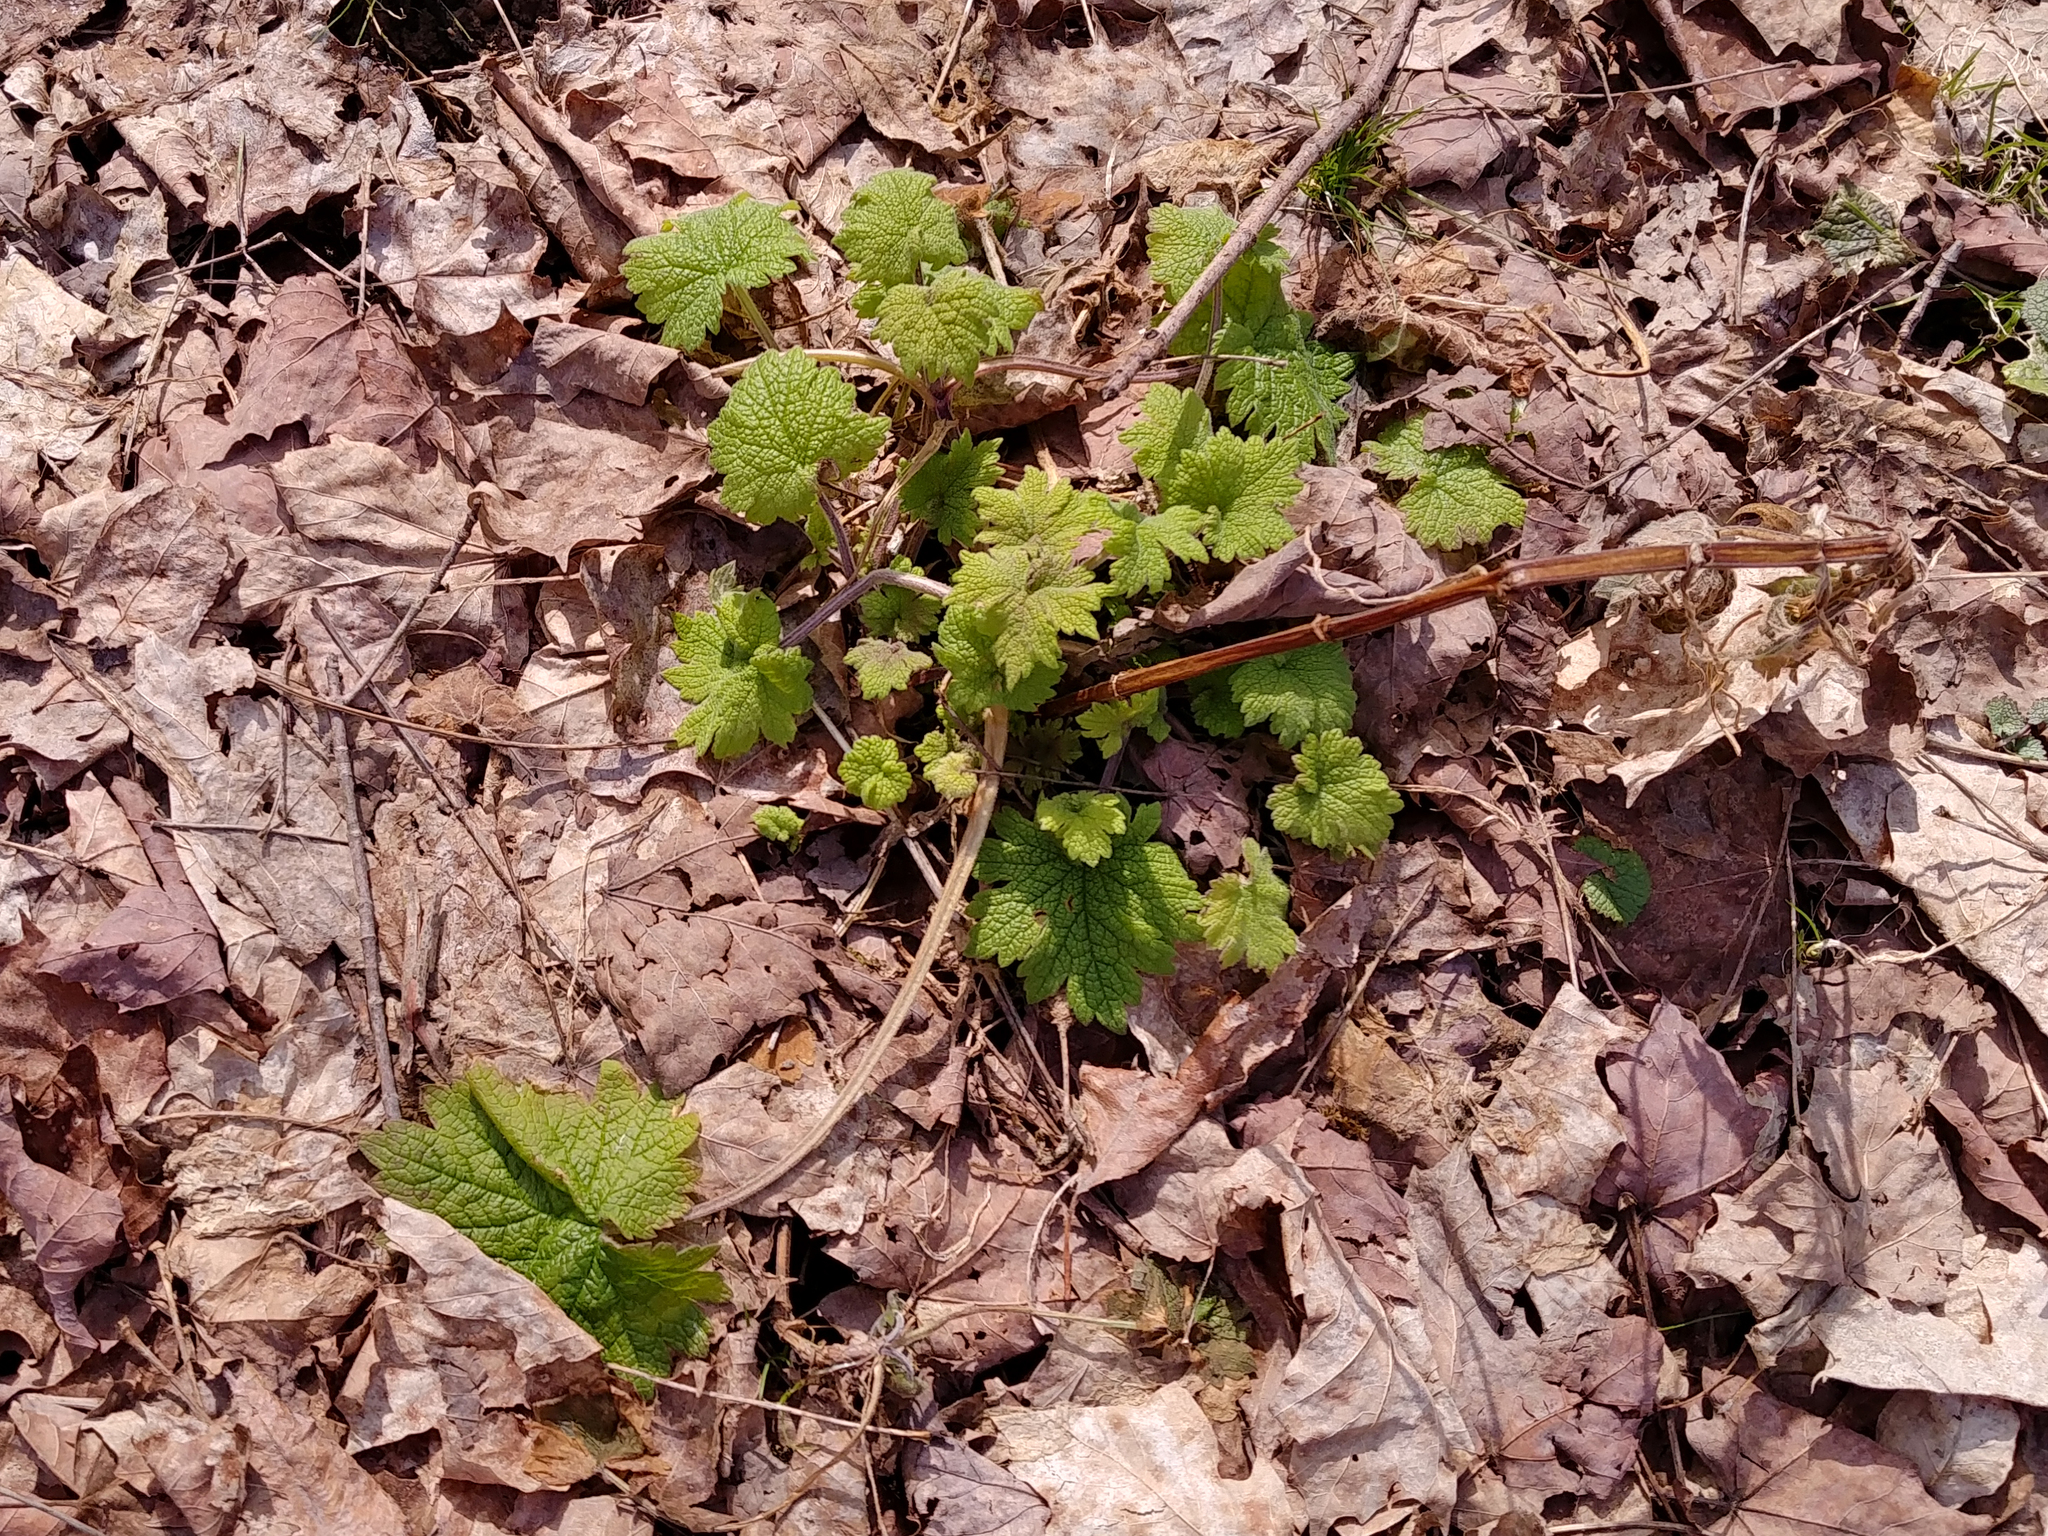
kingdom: Plantae
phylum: Tracheophyta
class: Magnoliopsida
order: Lamiales
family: Lamiaceae
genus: Leonurus
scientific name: Leonurus cardiaca
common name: Motherwort
